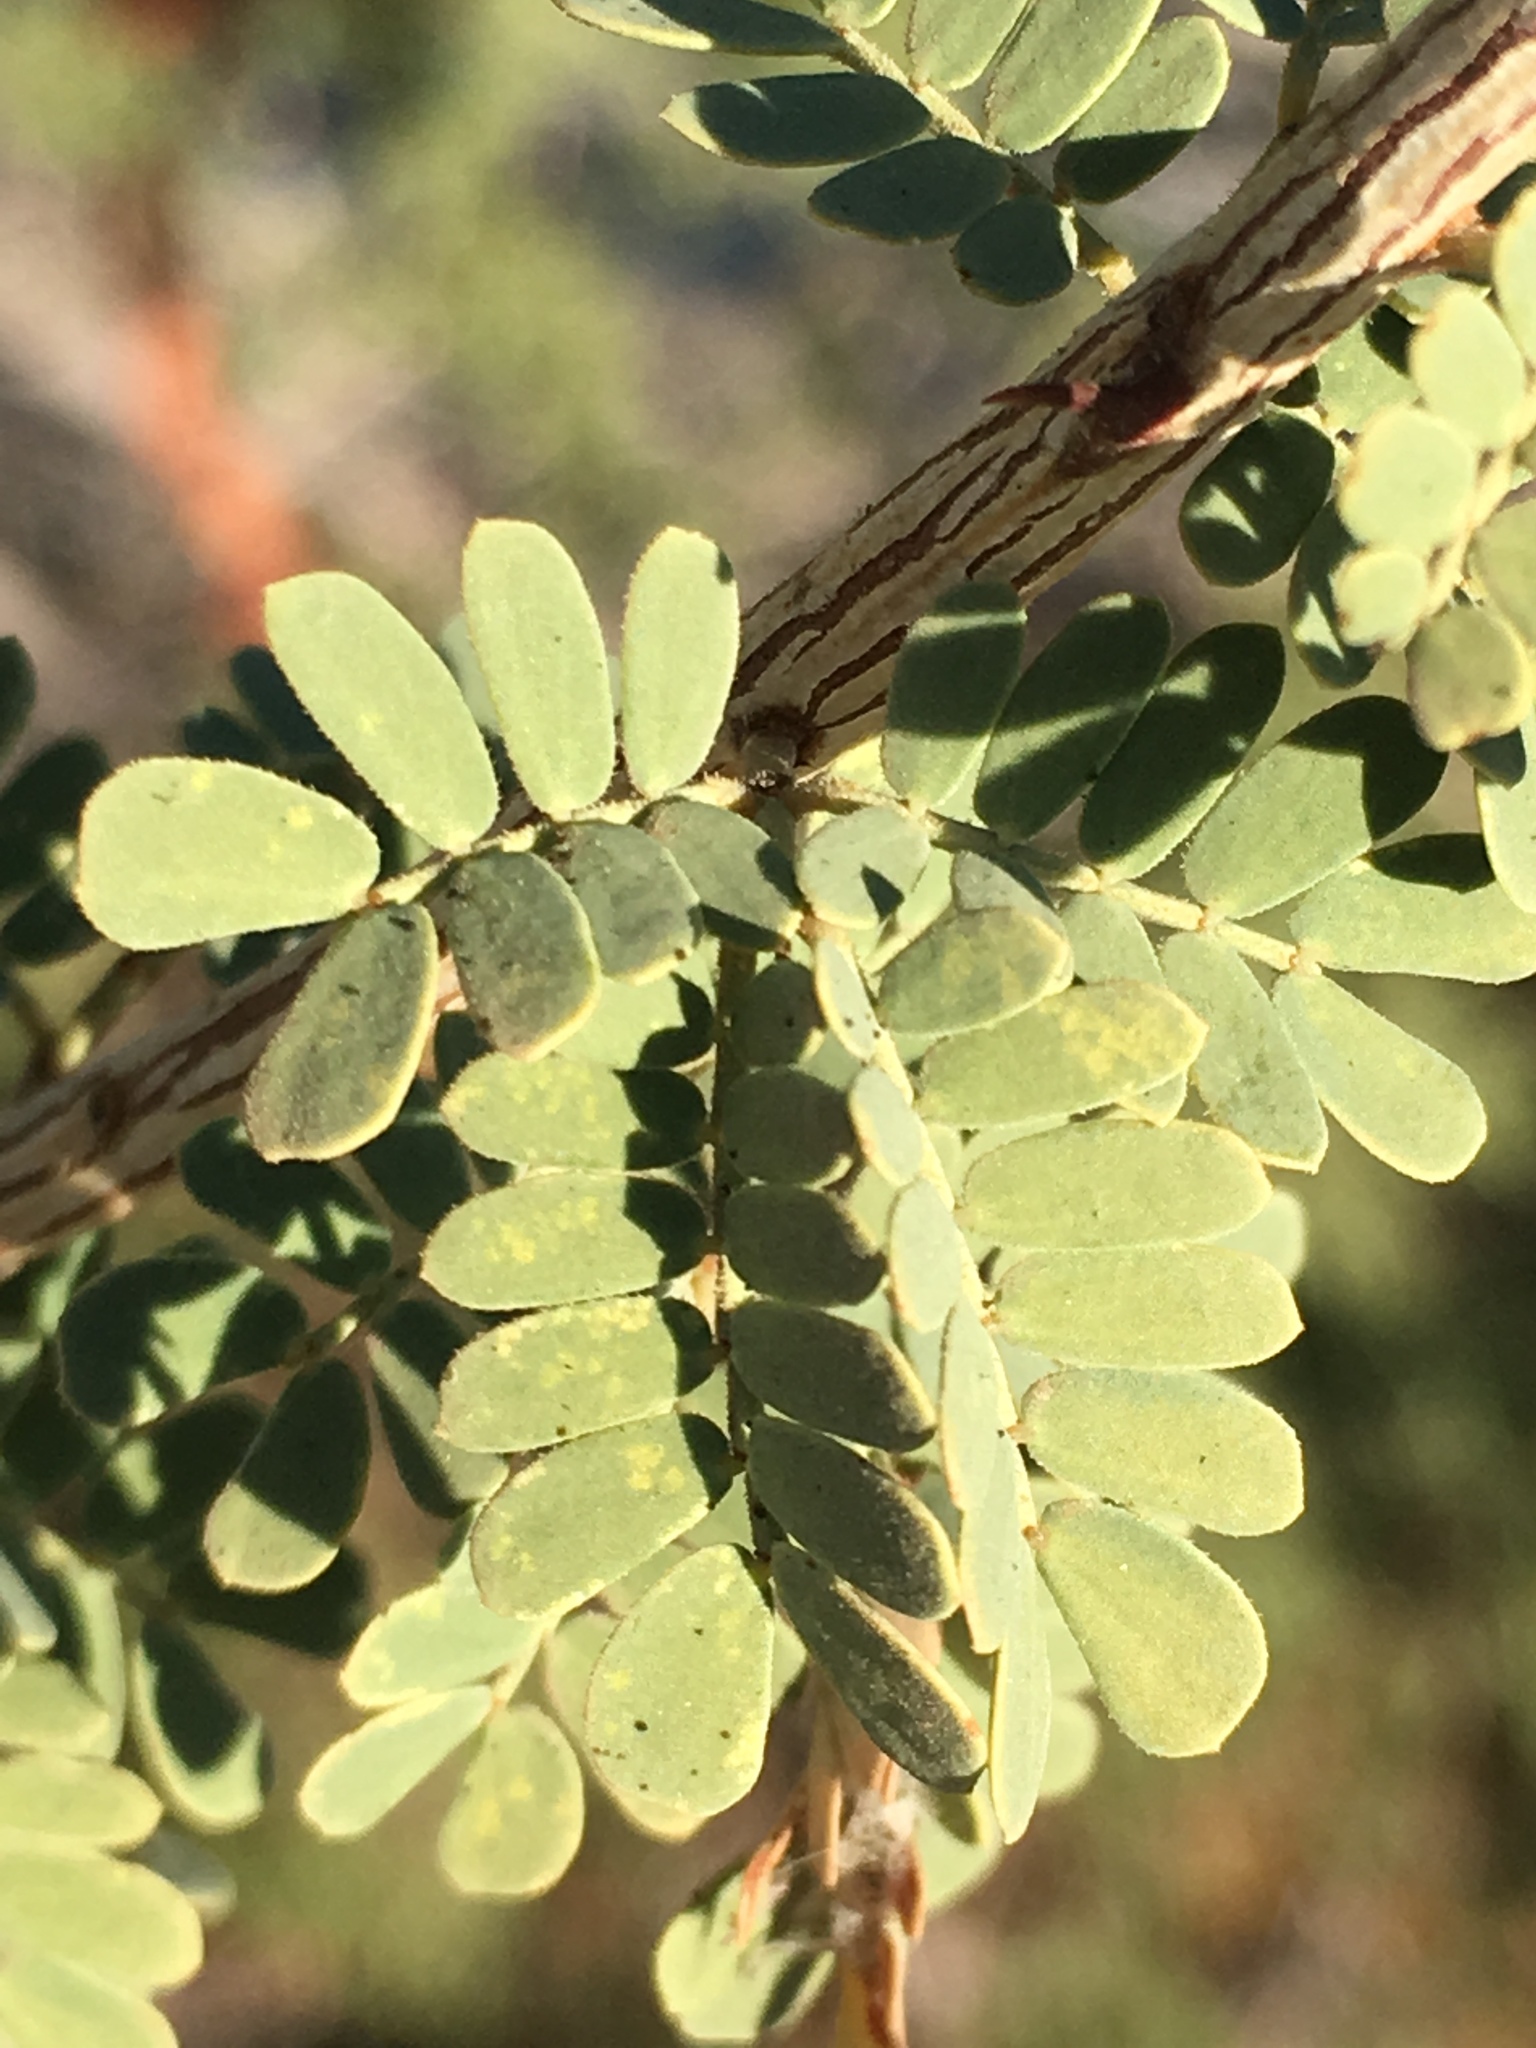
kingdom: Plantae
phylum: Tracheophyta
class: Magnoliopsida
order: Fabales
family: Fabaceae
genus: Senegalia
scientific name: Senegalia greggii
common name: Texas-mimosa
